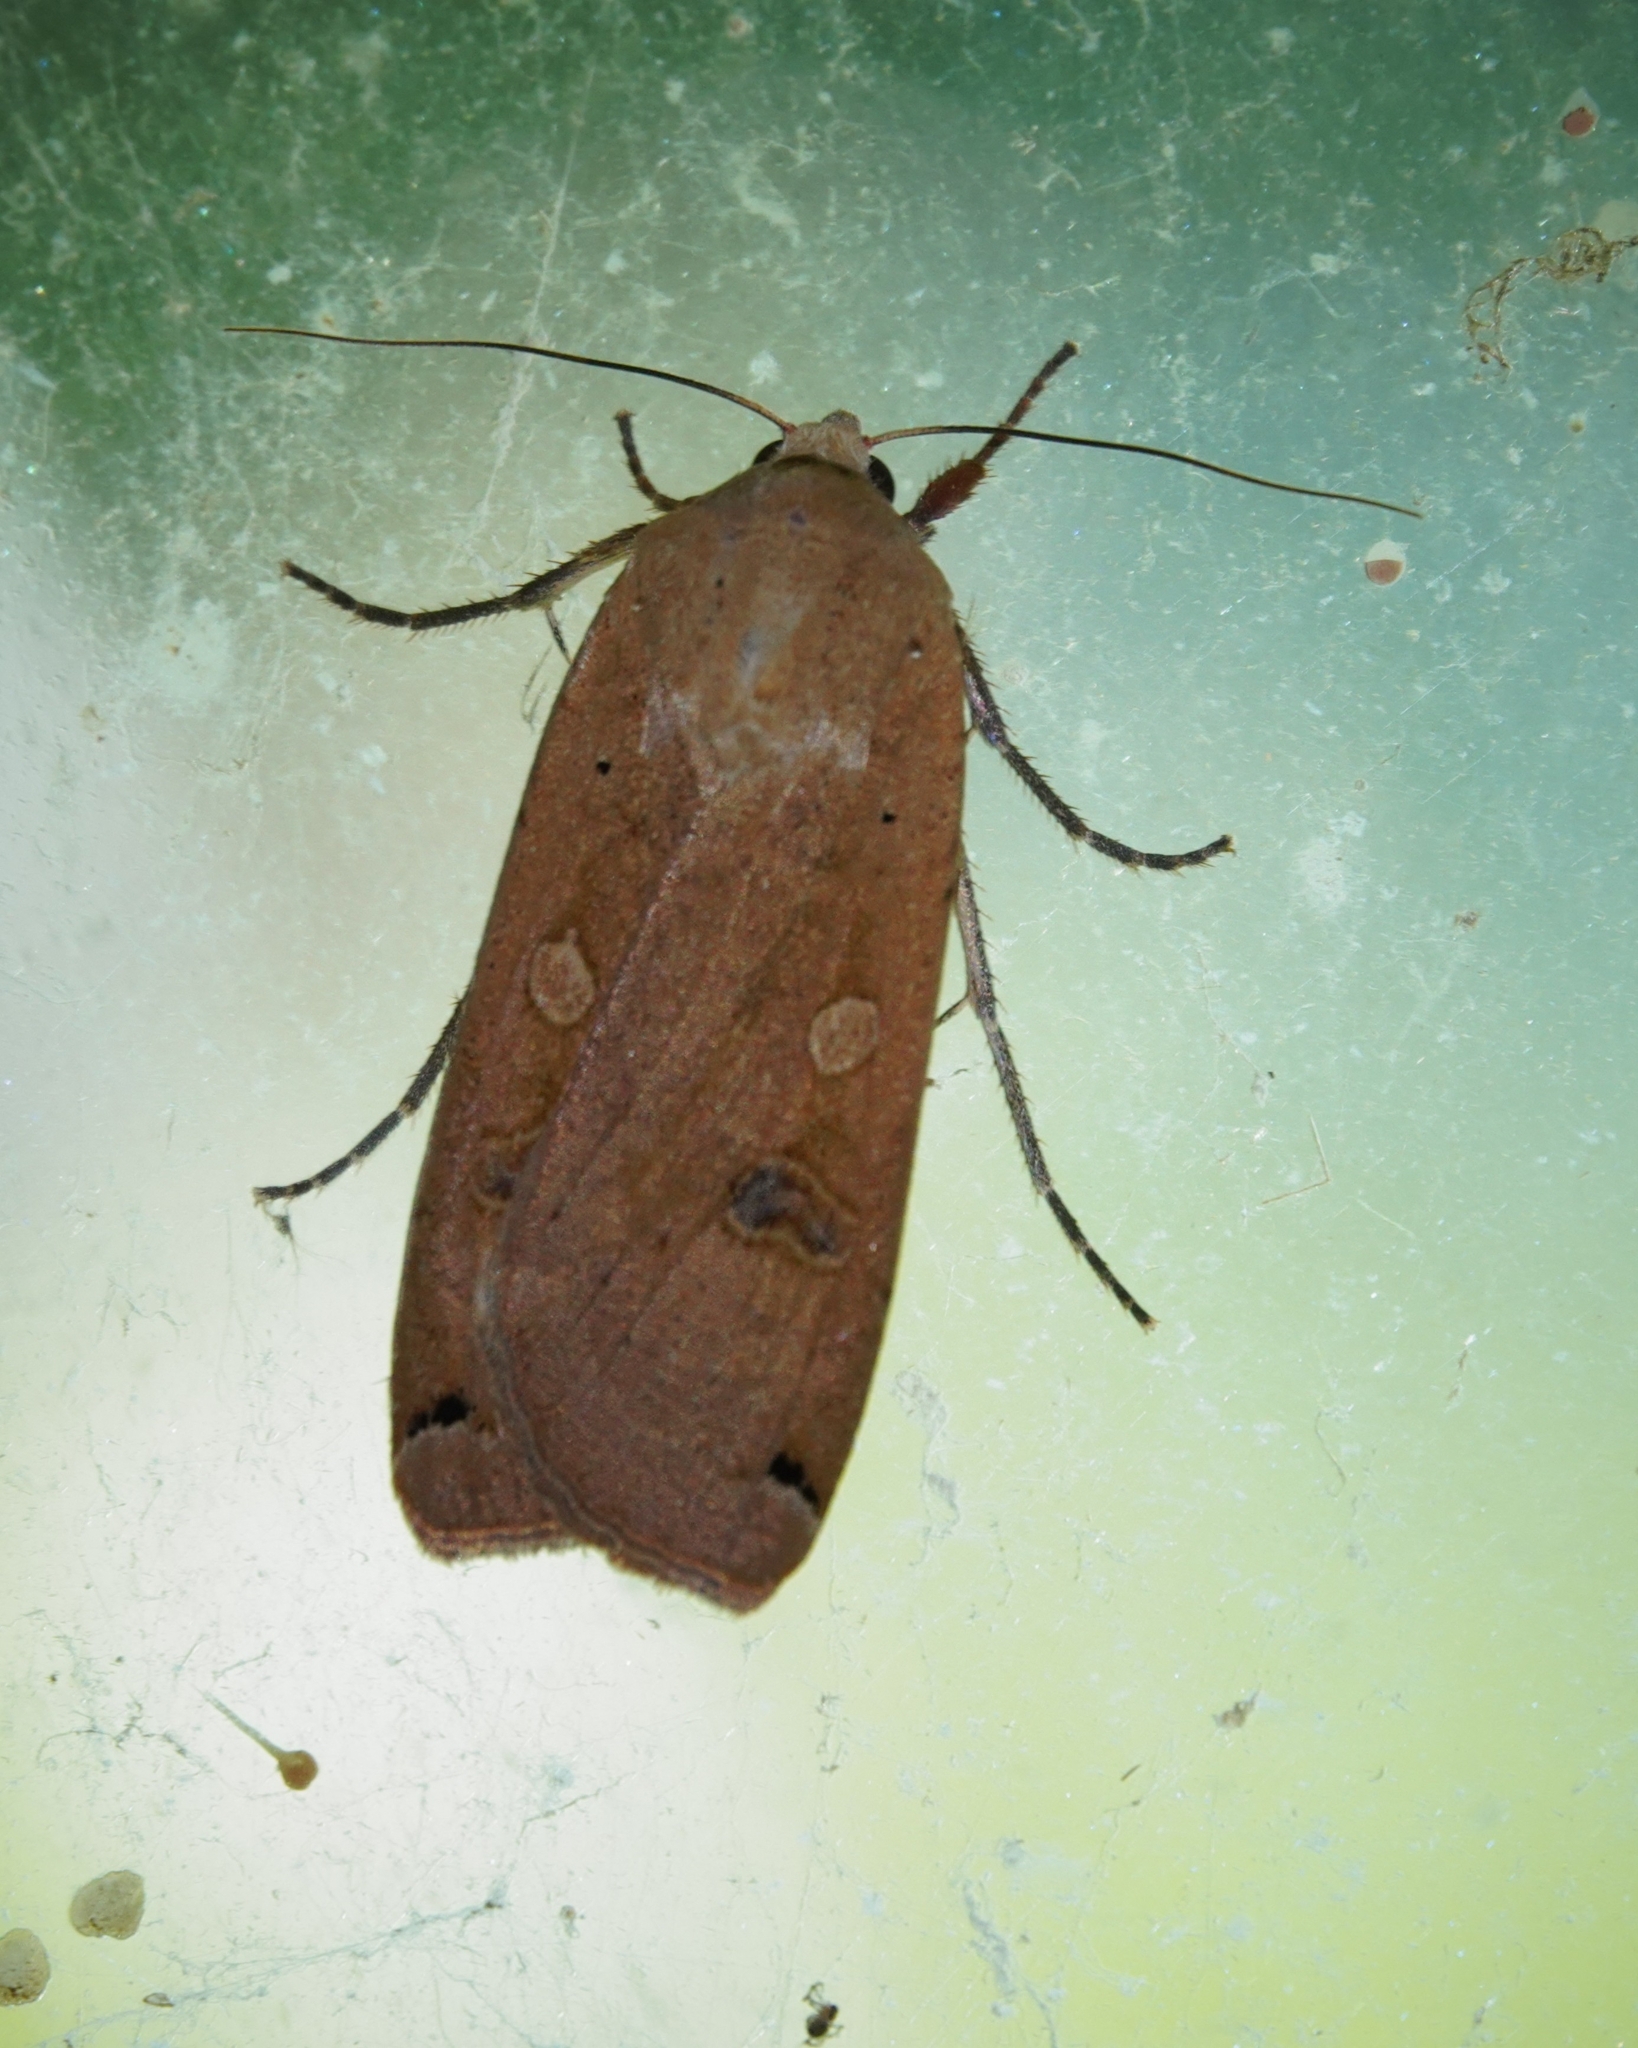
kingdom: Animalia
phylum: Arthropoda
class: Insecta
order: Lepidoptera
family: Noctuidae
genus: Noctua
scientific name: Noctua pronuba
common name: Large yellow underwing
